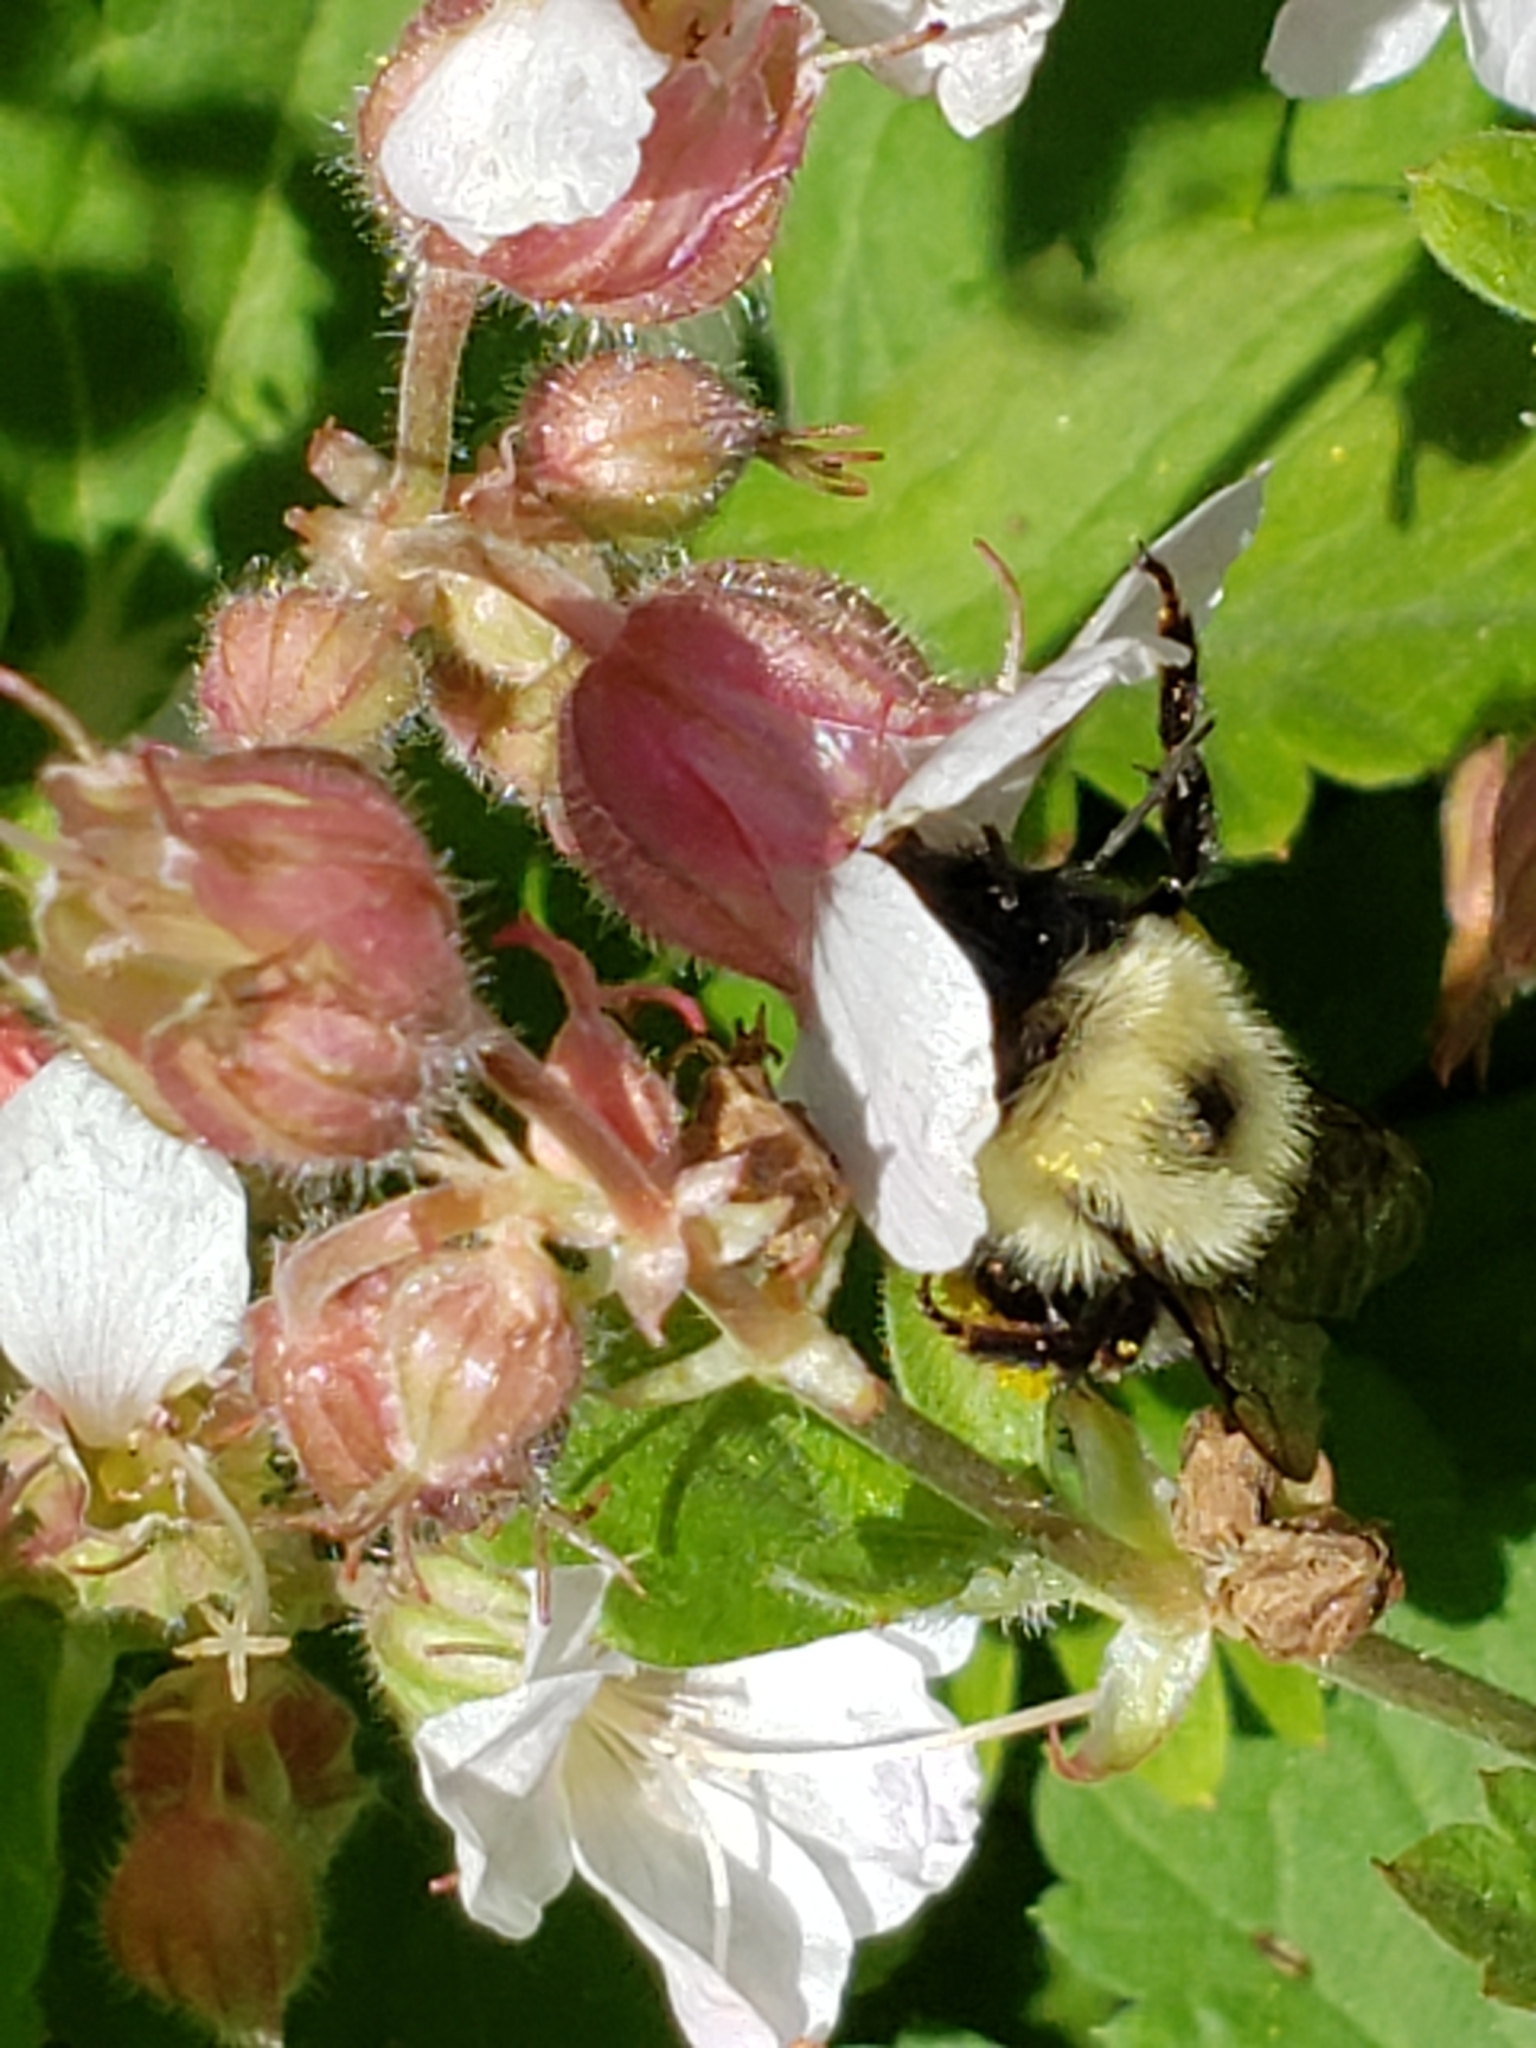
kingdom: Animalia
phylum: Arthropoda
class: Insecta
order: Hymenoptera
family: Apidae
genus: Pyrobombus
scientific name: Pyrobombus
